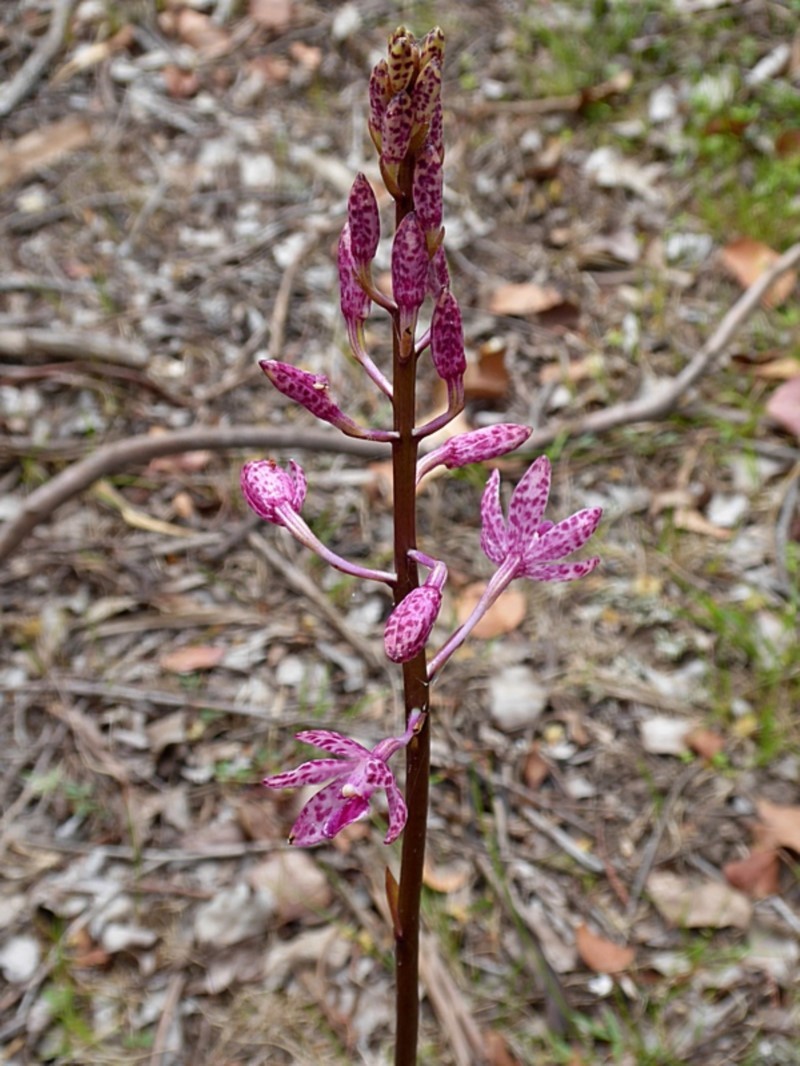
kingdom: Plantae
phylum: Tracheophyta
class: Liliopsida
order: Asparagales
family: Orchidaceae
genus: Dipodium
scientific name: Dipodium squamatum
